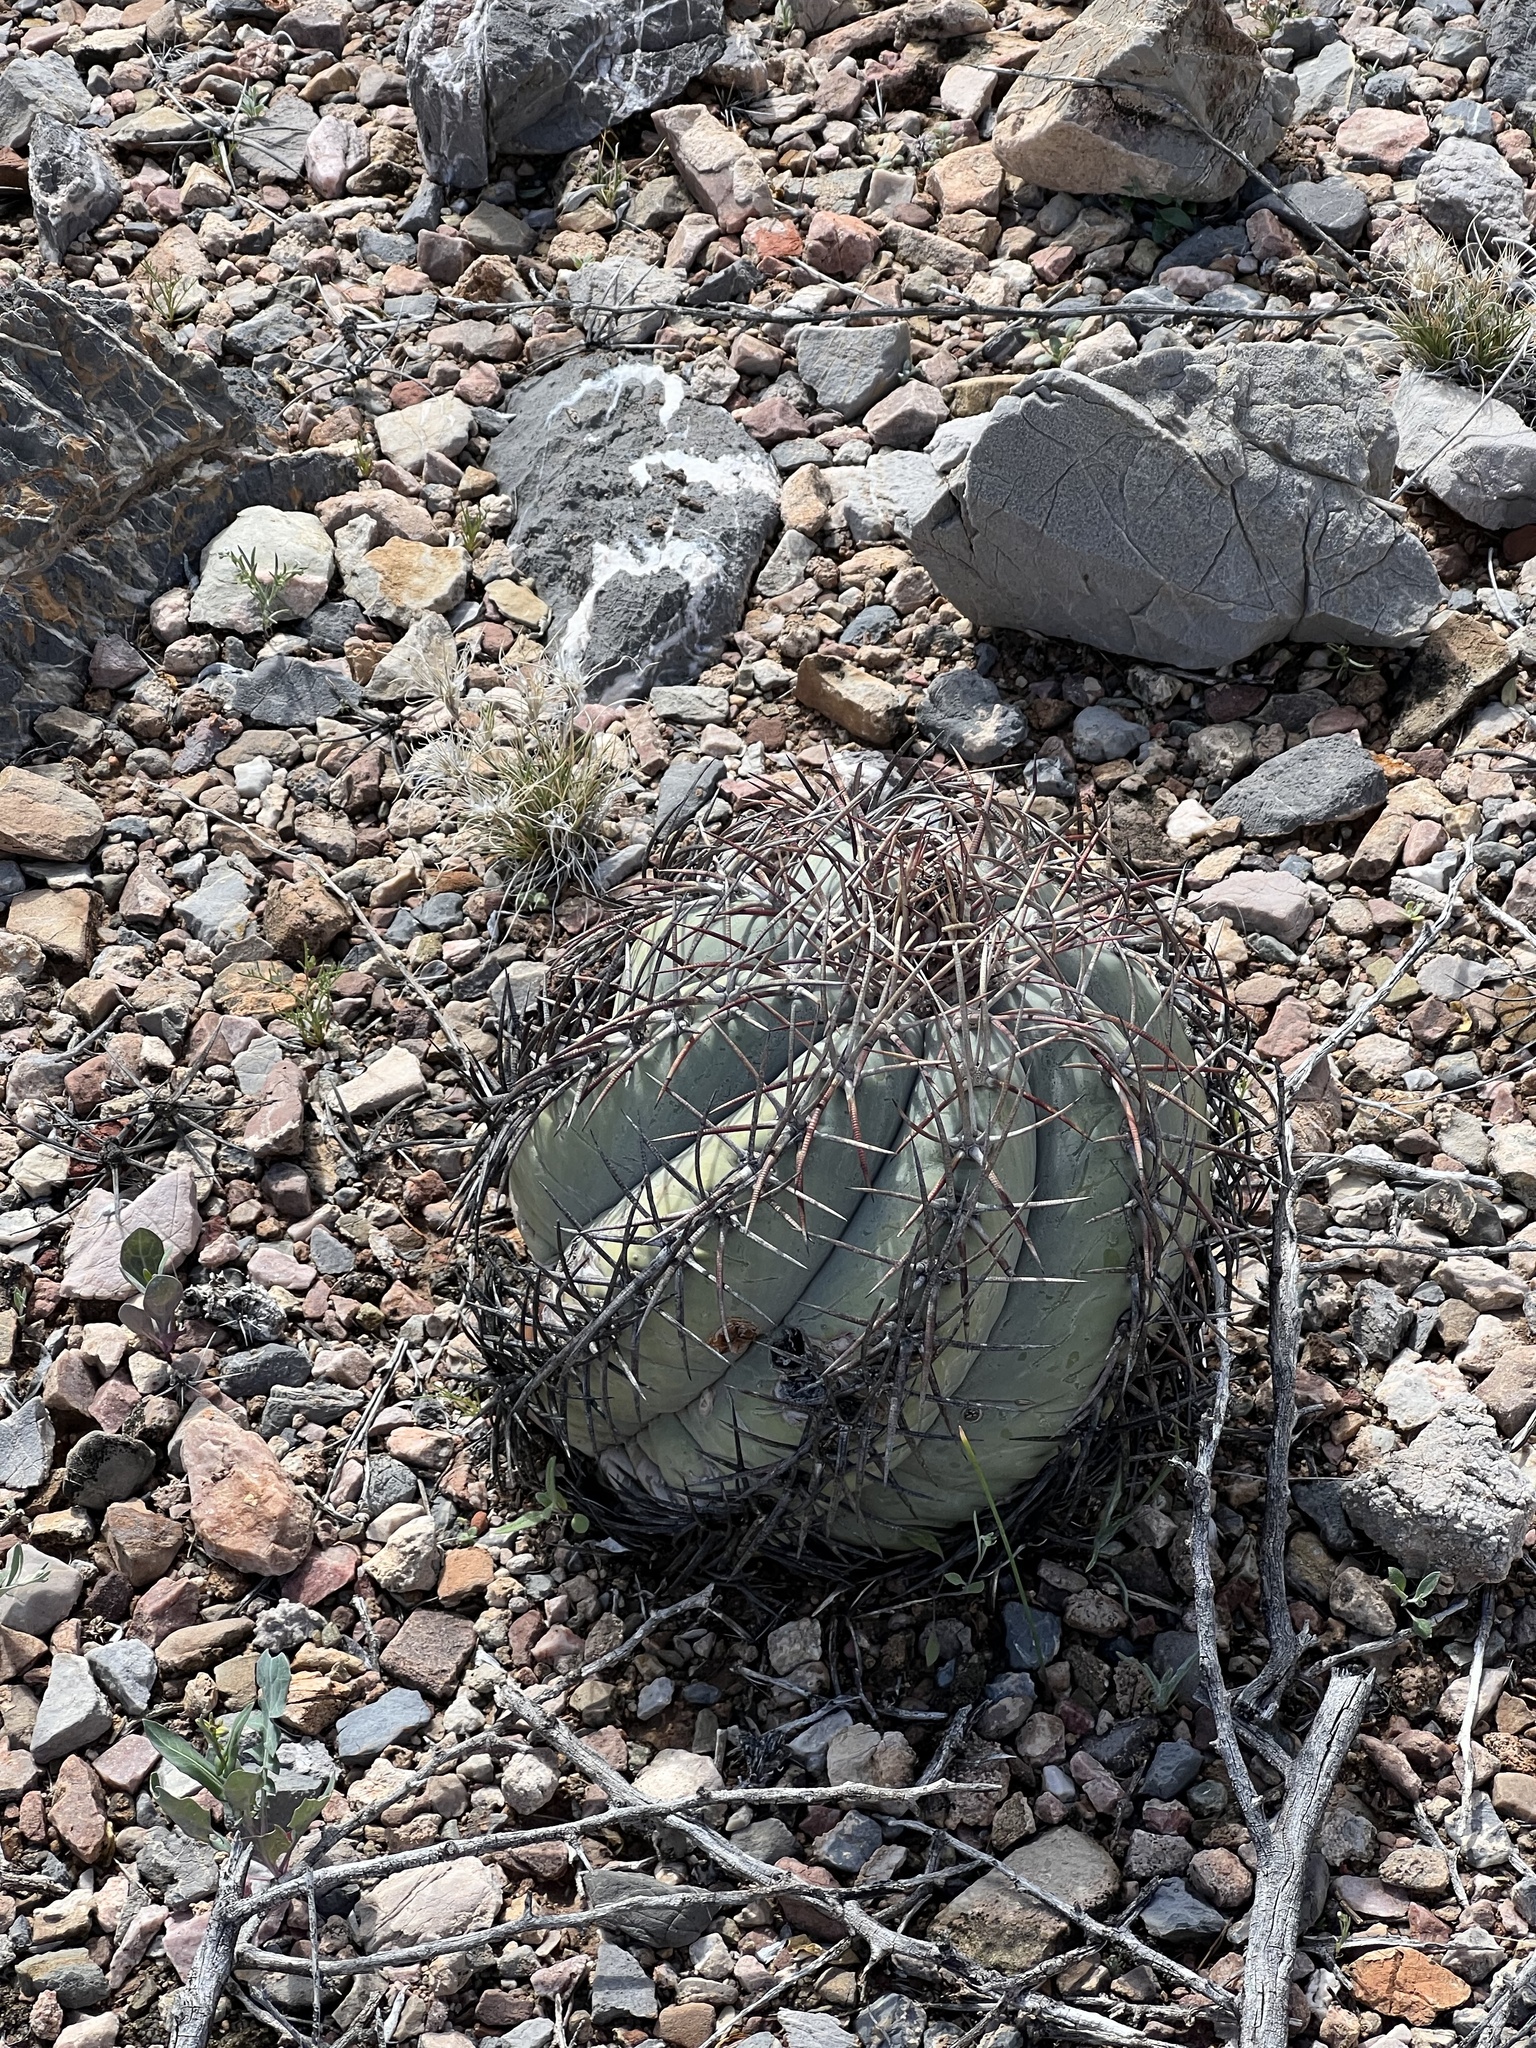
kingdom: Plantae
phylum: Tracheophyta
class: Magnoliopsida
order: Caryophyllales
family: Cactaceae
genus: Echinocactus
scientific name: Echinocactus horizonthalonius
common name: Devilshead
